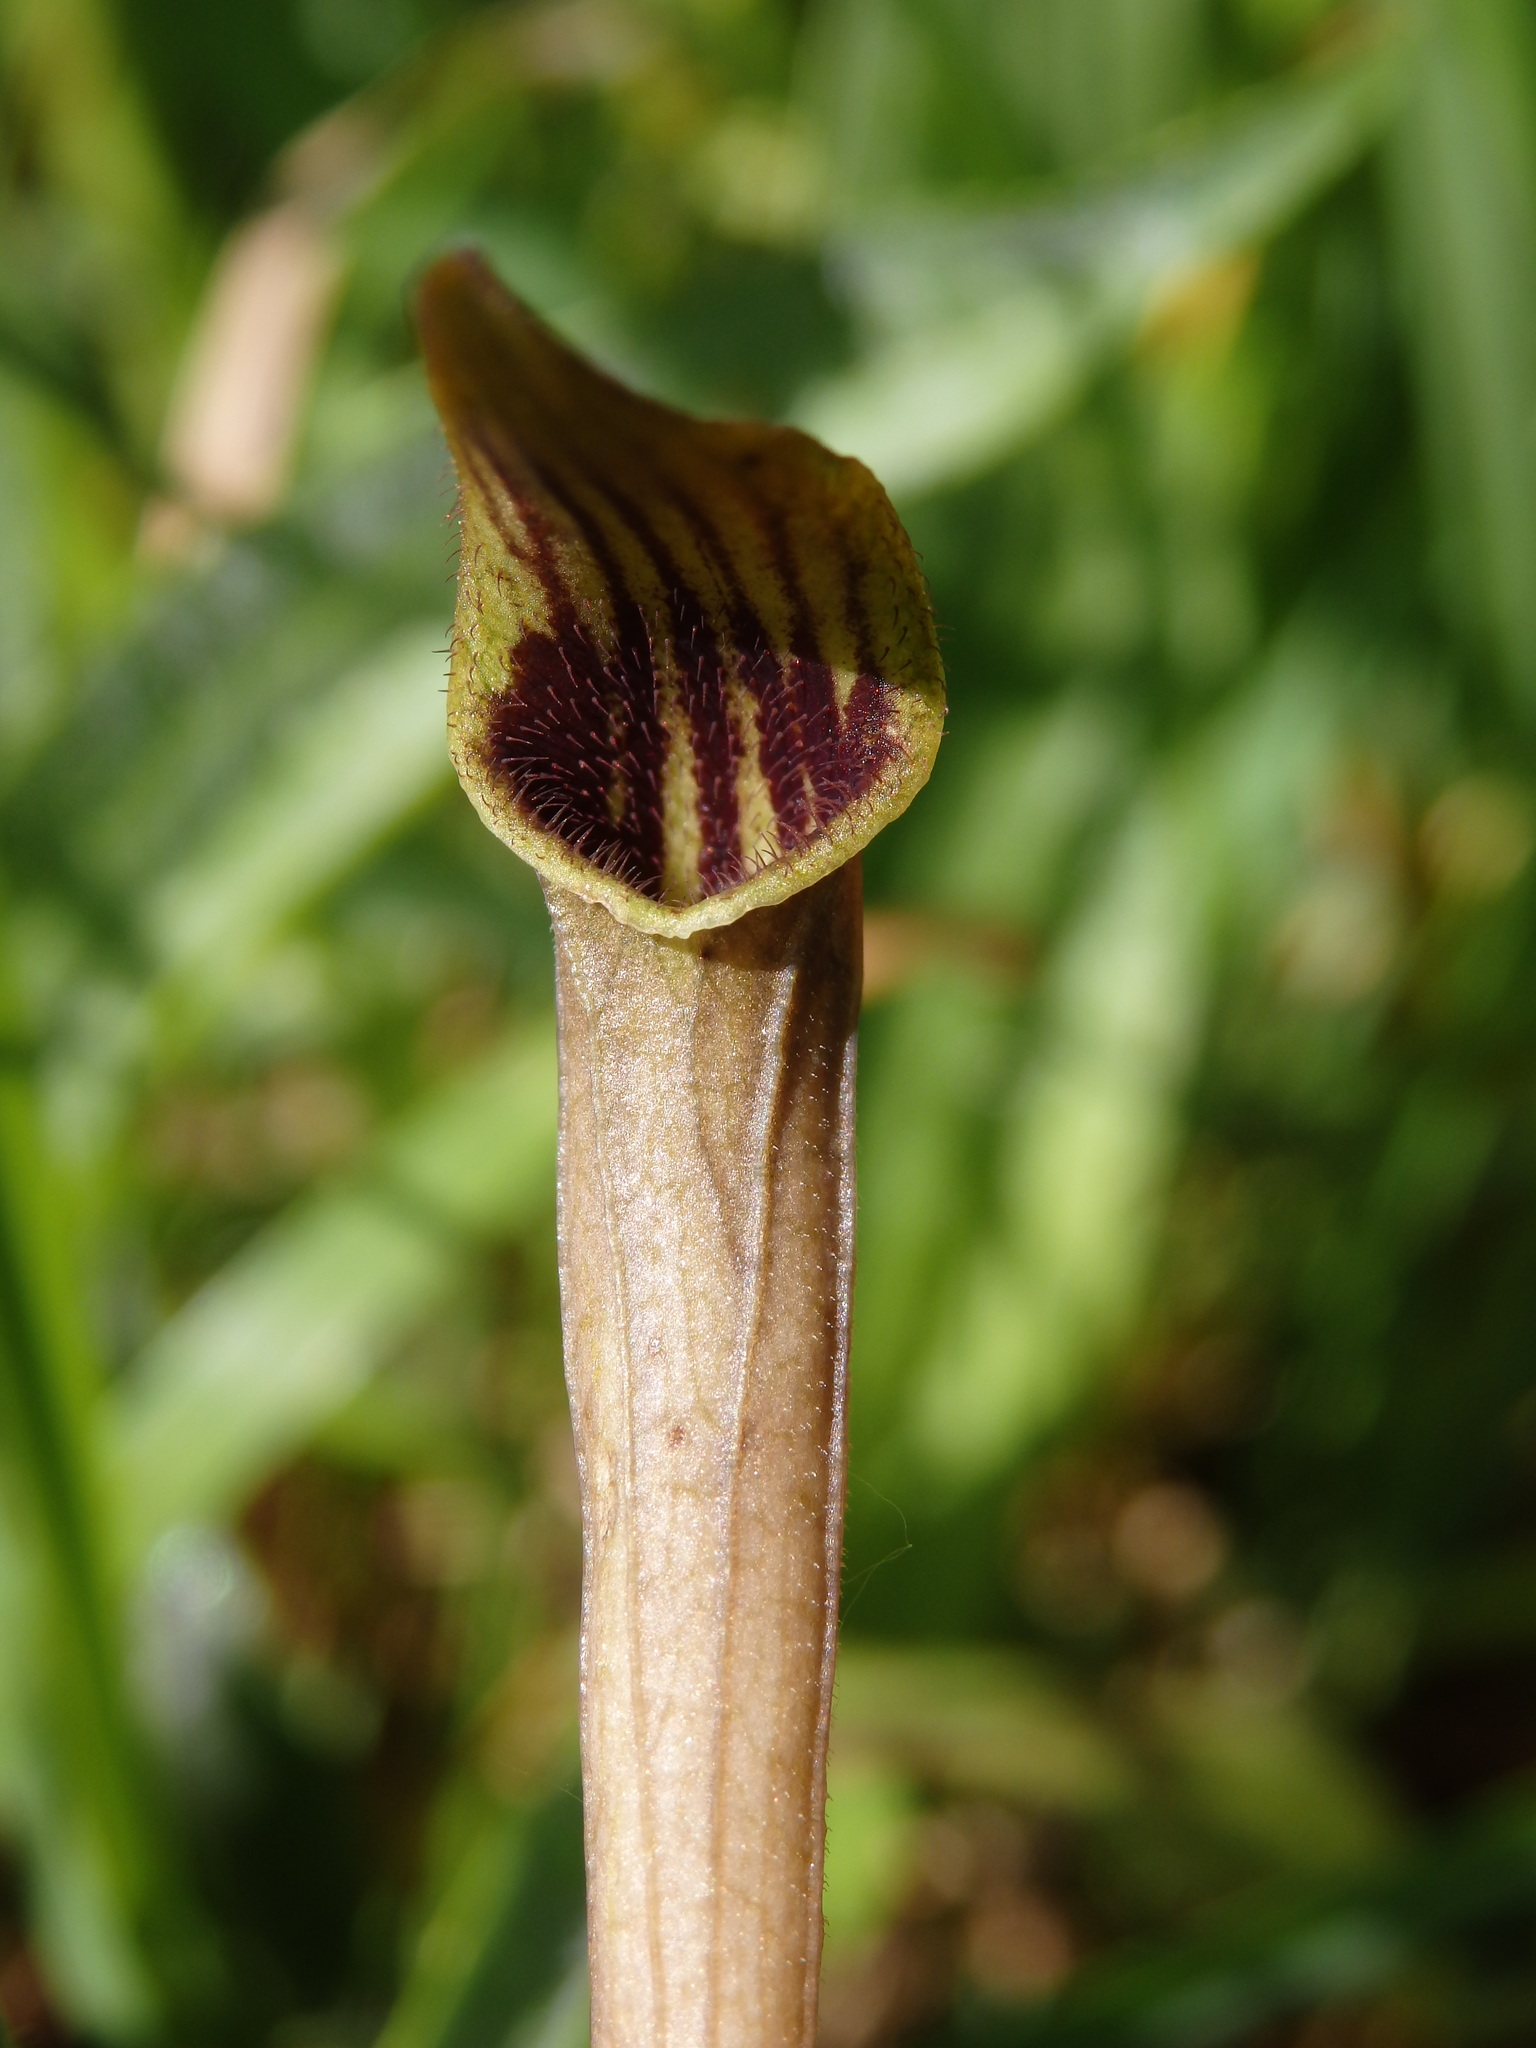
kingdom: Plantae
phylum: Tracheophyta
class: Magnoliopsida
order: Piperales
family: Aristolochiaceae
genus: Aristolochia
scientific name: Aristolochia paucinervis
